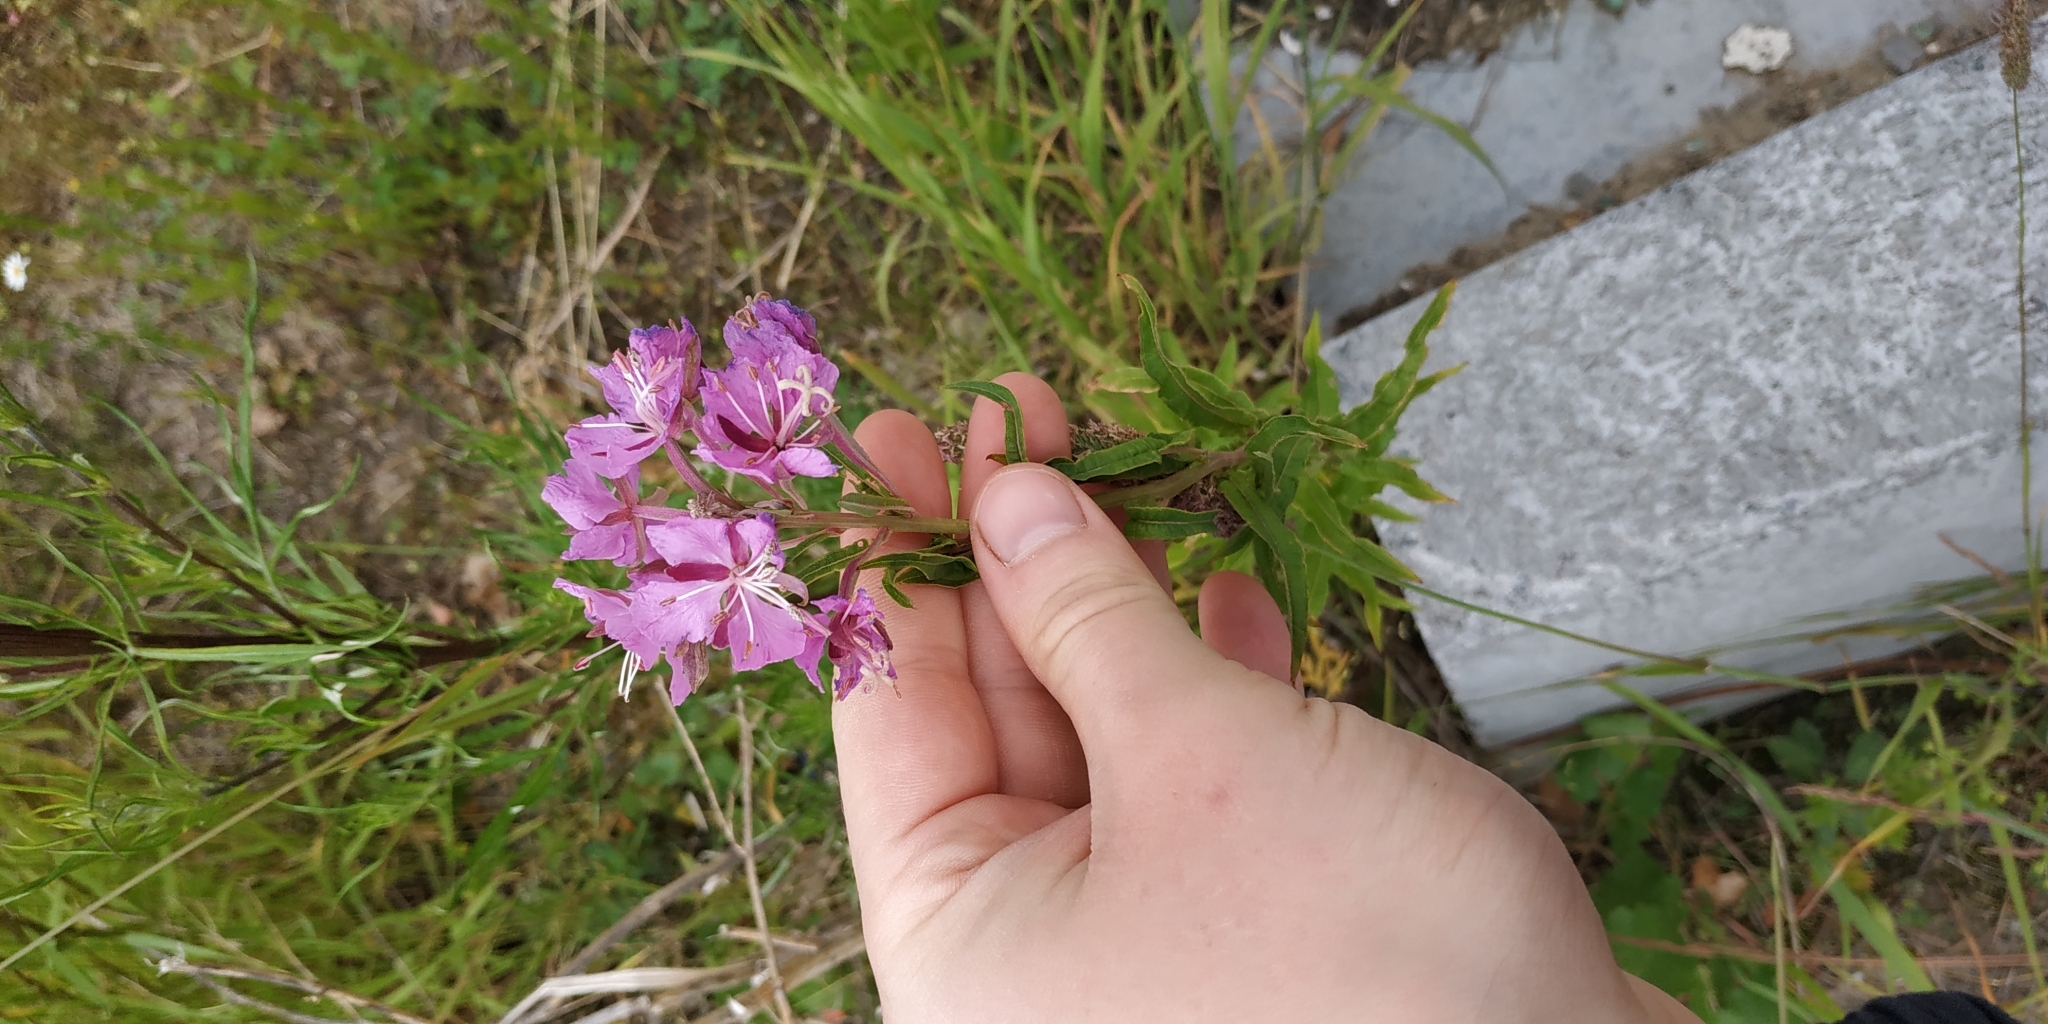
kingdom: Plantae
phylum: Tracheophyta
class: Magnoliopsida
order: Myrtales
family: Onagraceae
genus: Chamaenerion
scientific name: Chamaenerion angustifolium
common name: Fireweed
